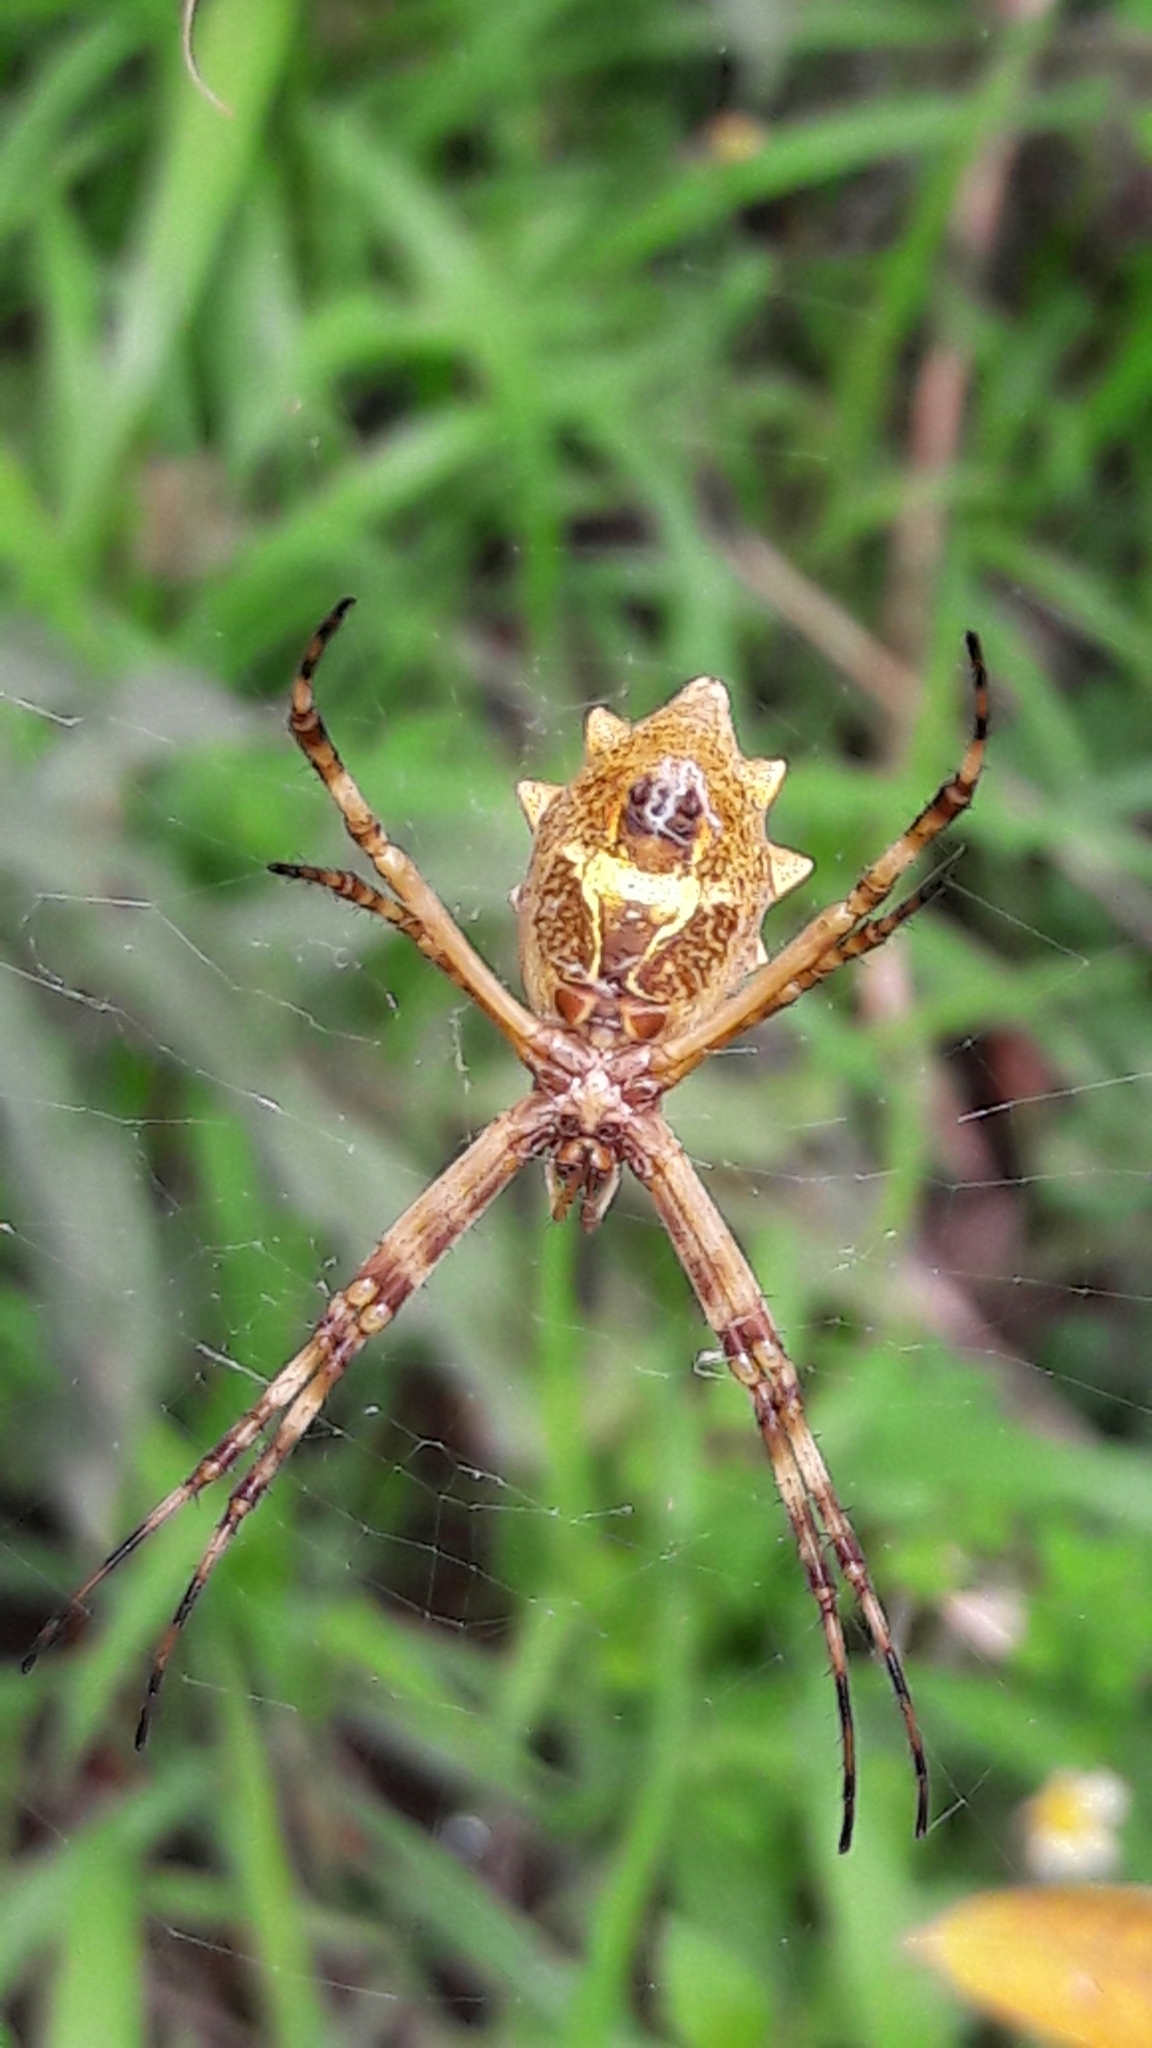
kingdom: Animalia
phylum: Arthropoda
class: Arachnida
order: Araneae
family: Araneidae
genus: Argiope
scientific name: Argiope argentata
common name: Orb weavers
